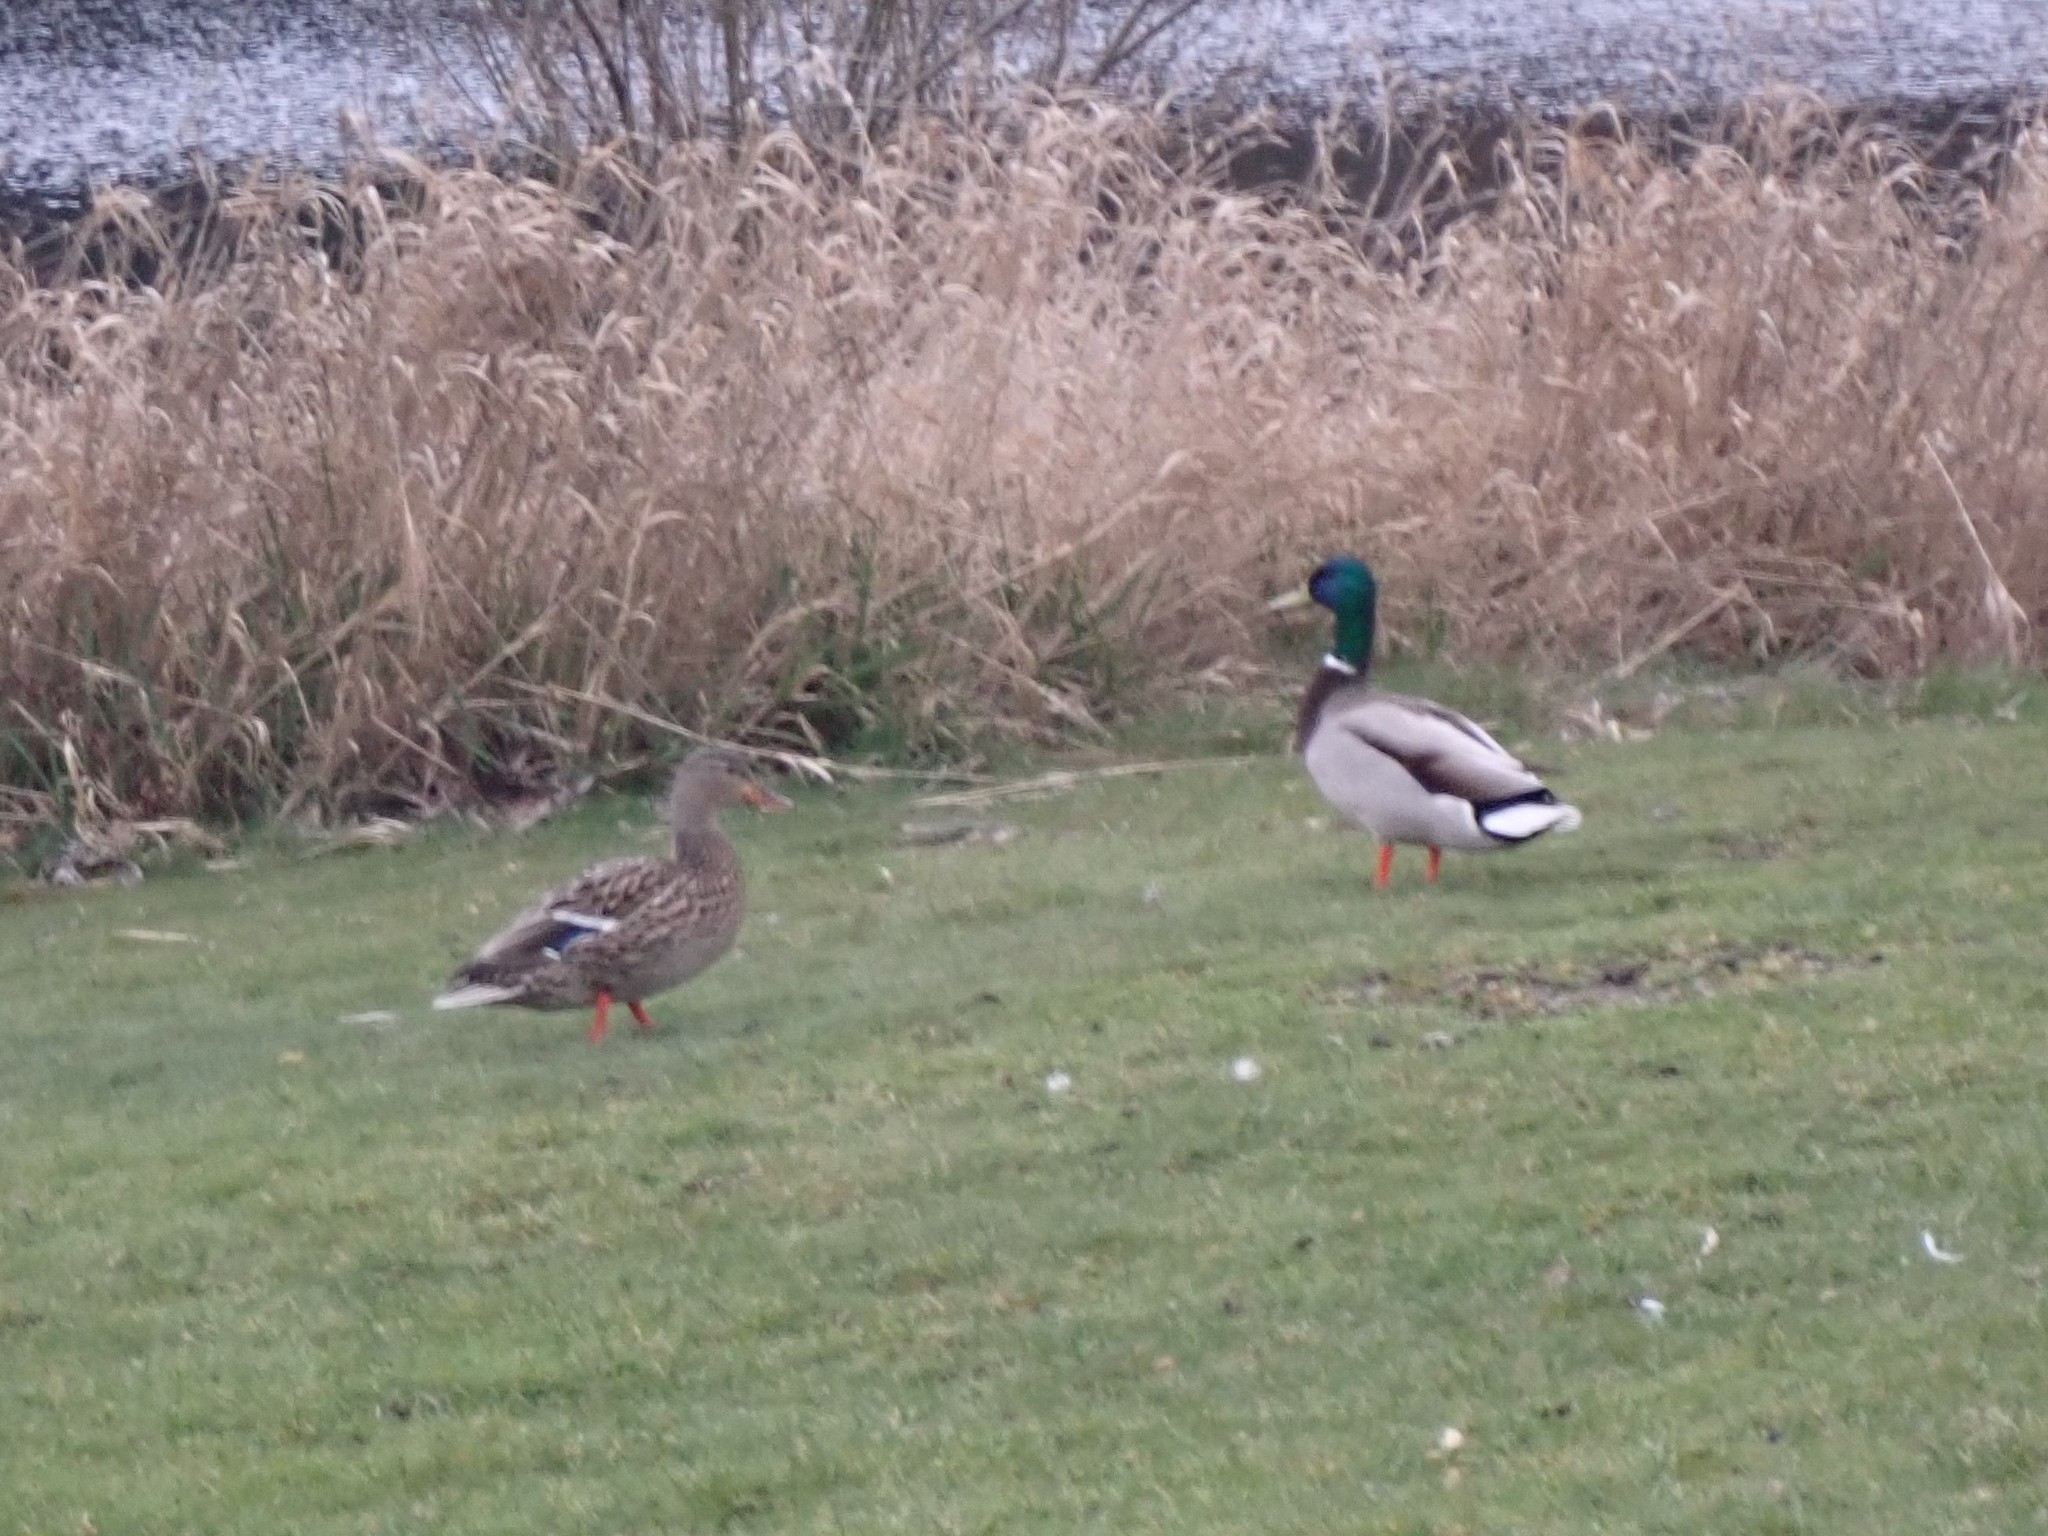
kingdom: Animalia
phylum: Chordata
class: Aves
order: Anseriformes
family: Anatidae
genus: Anas
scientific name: Anas platyrhynchos
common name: Mallard
